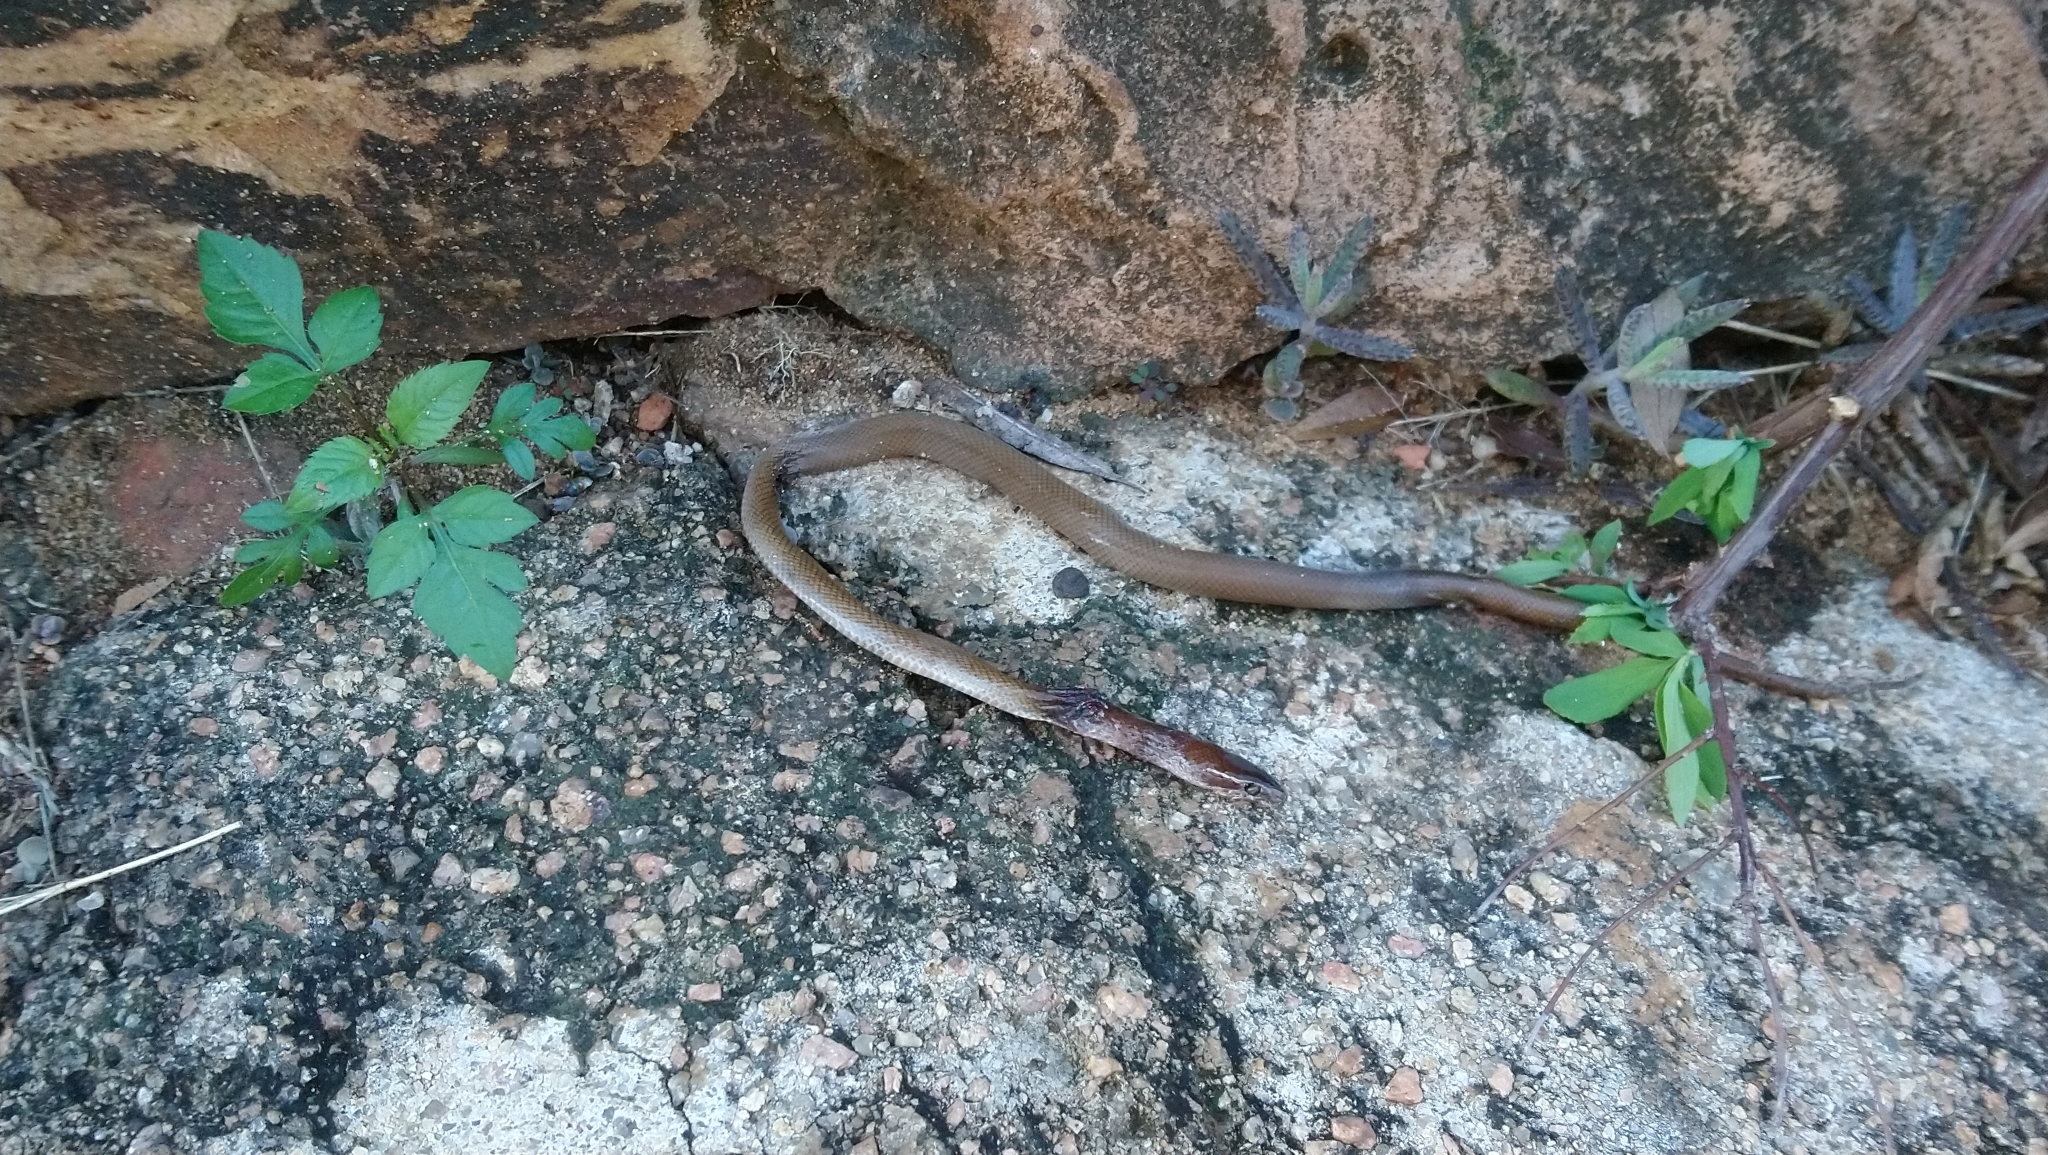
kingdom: Animalia
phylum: Chordata
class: Squamata
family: Lamprophiidae
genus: Boaedon
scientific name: Boaedon capensis
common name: Brown house snake
